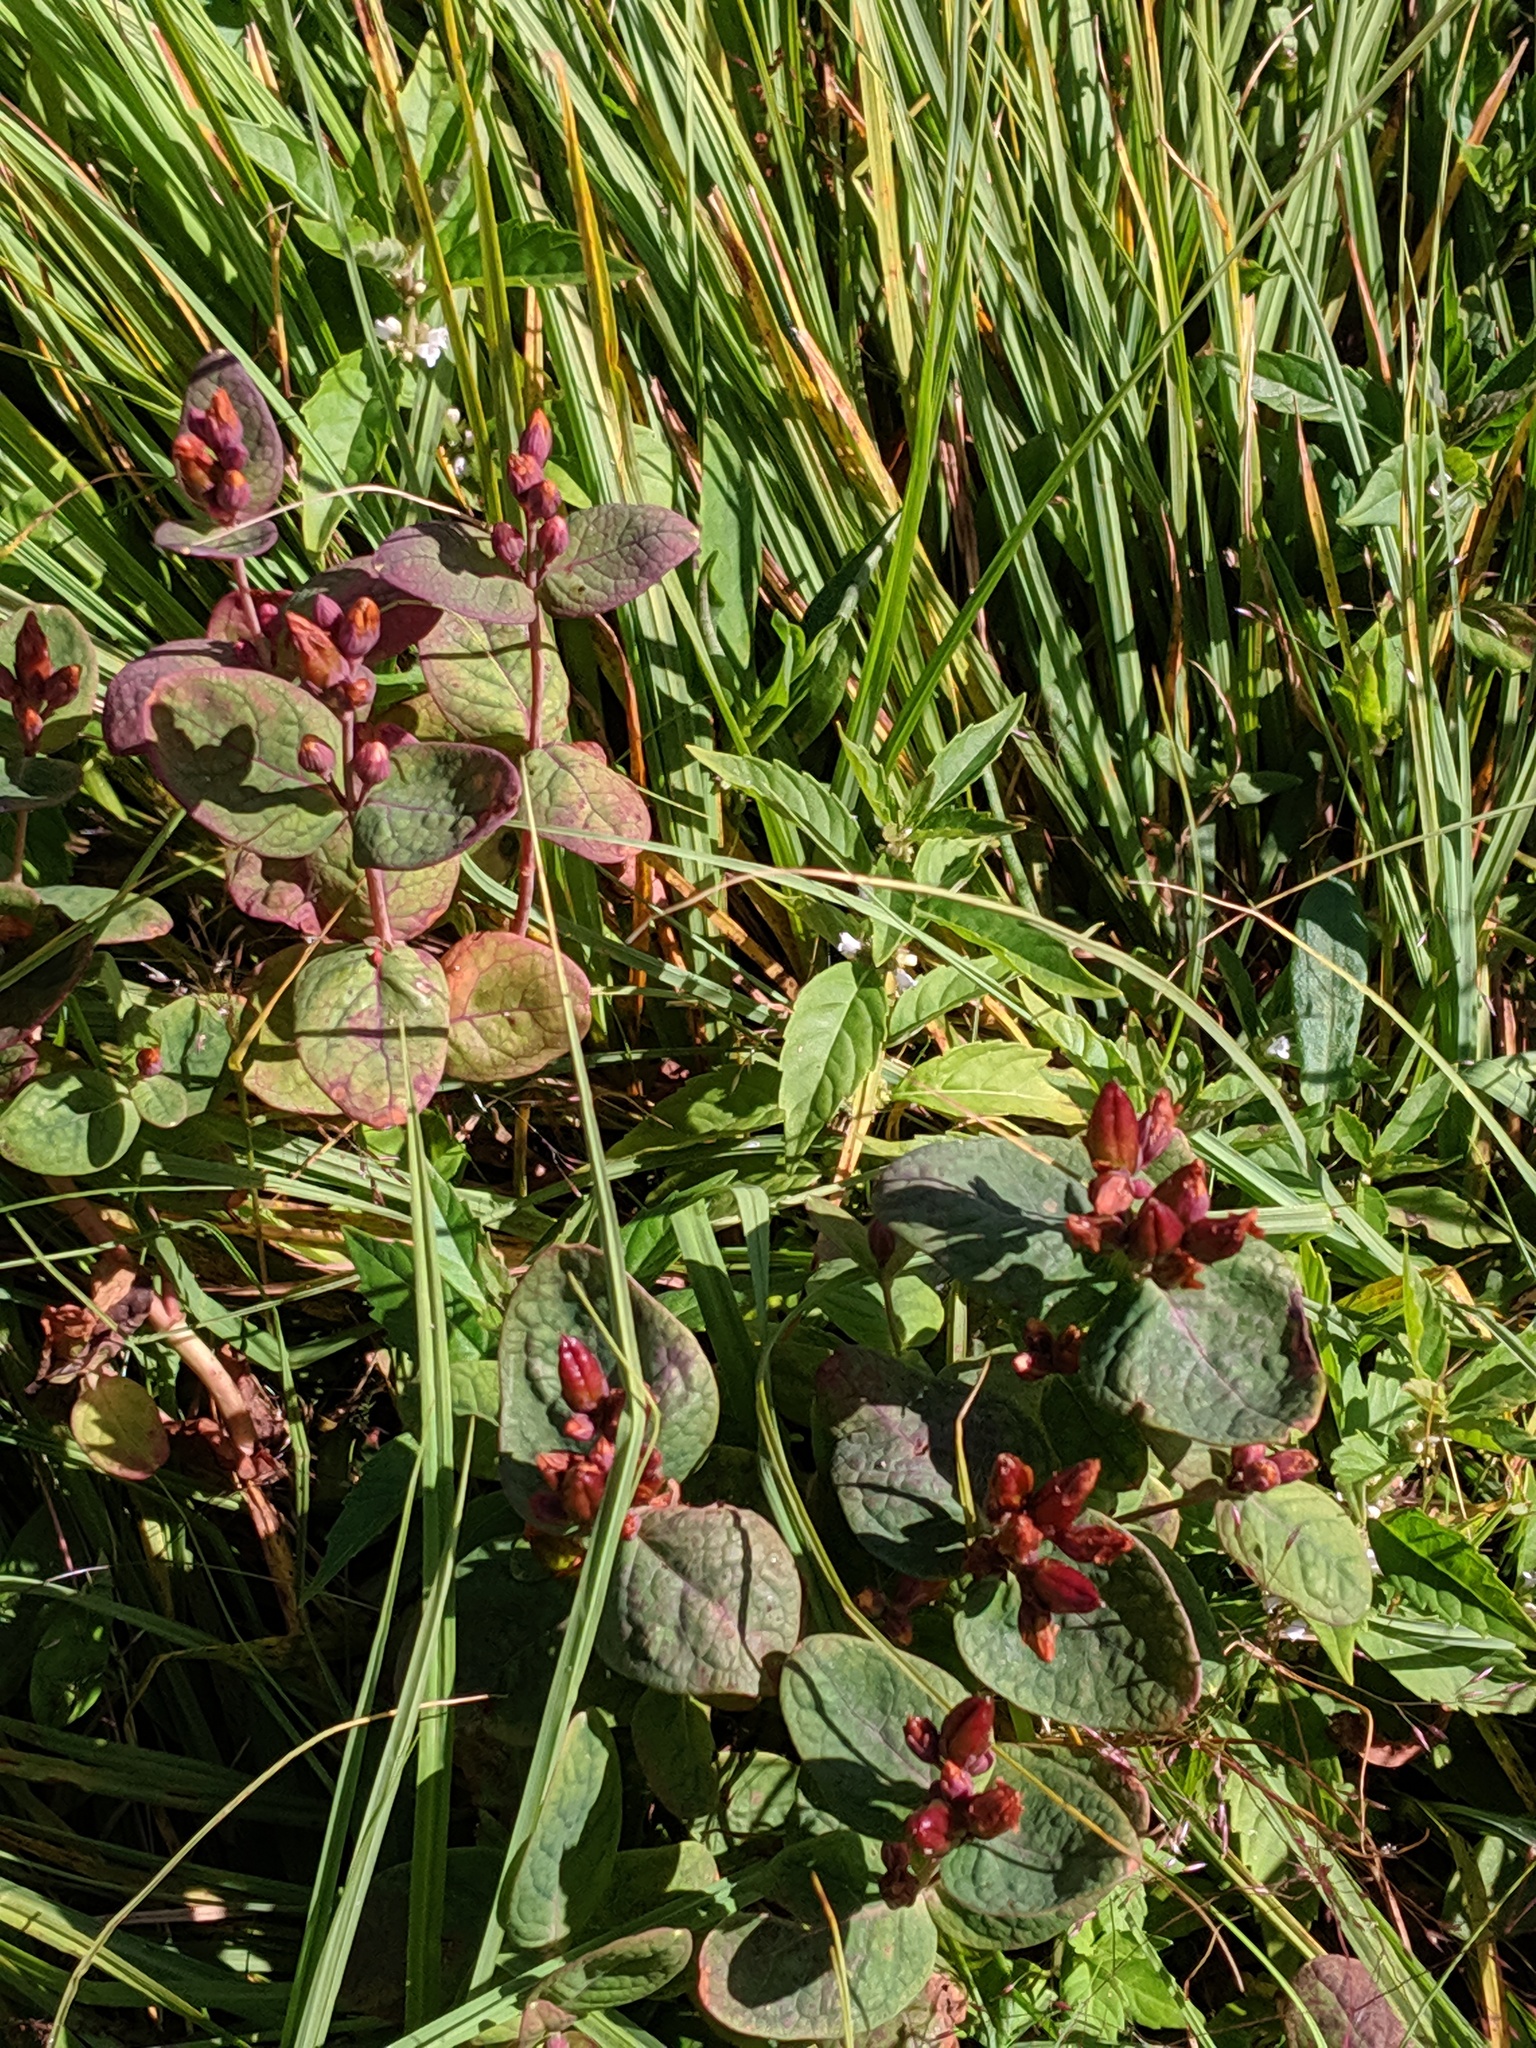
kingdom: Plantae
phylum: Tracheophyta
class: Magnoliopsida
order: Malpighiales
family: Hypericaceae
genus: Triadenum
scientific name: Triadenum fraseri
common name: Fraser's marsh st. johnswort
